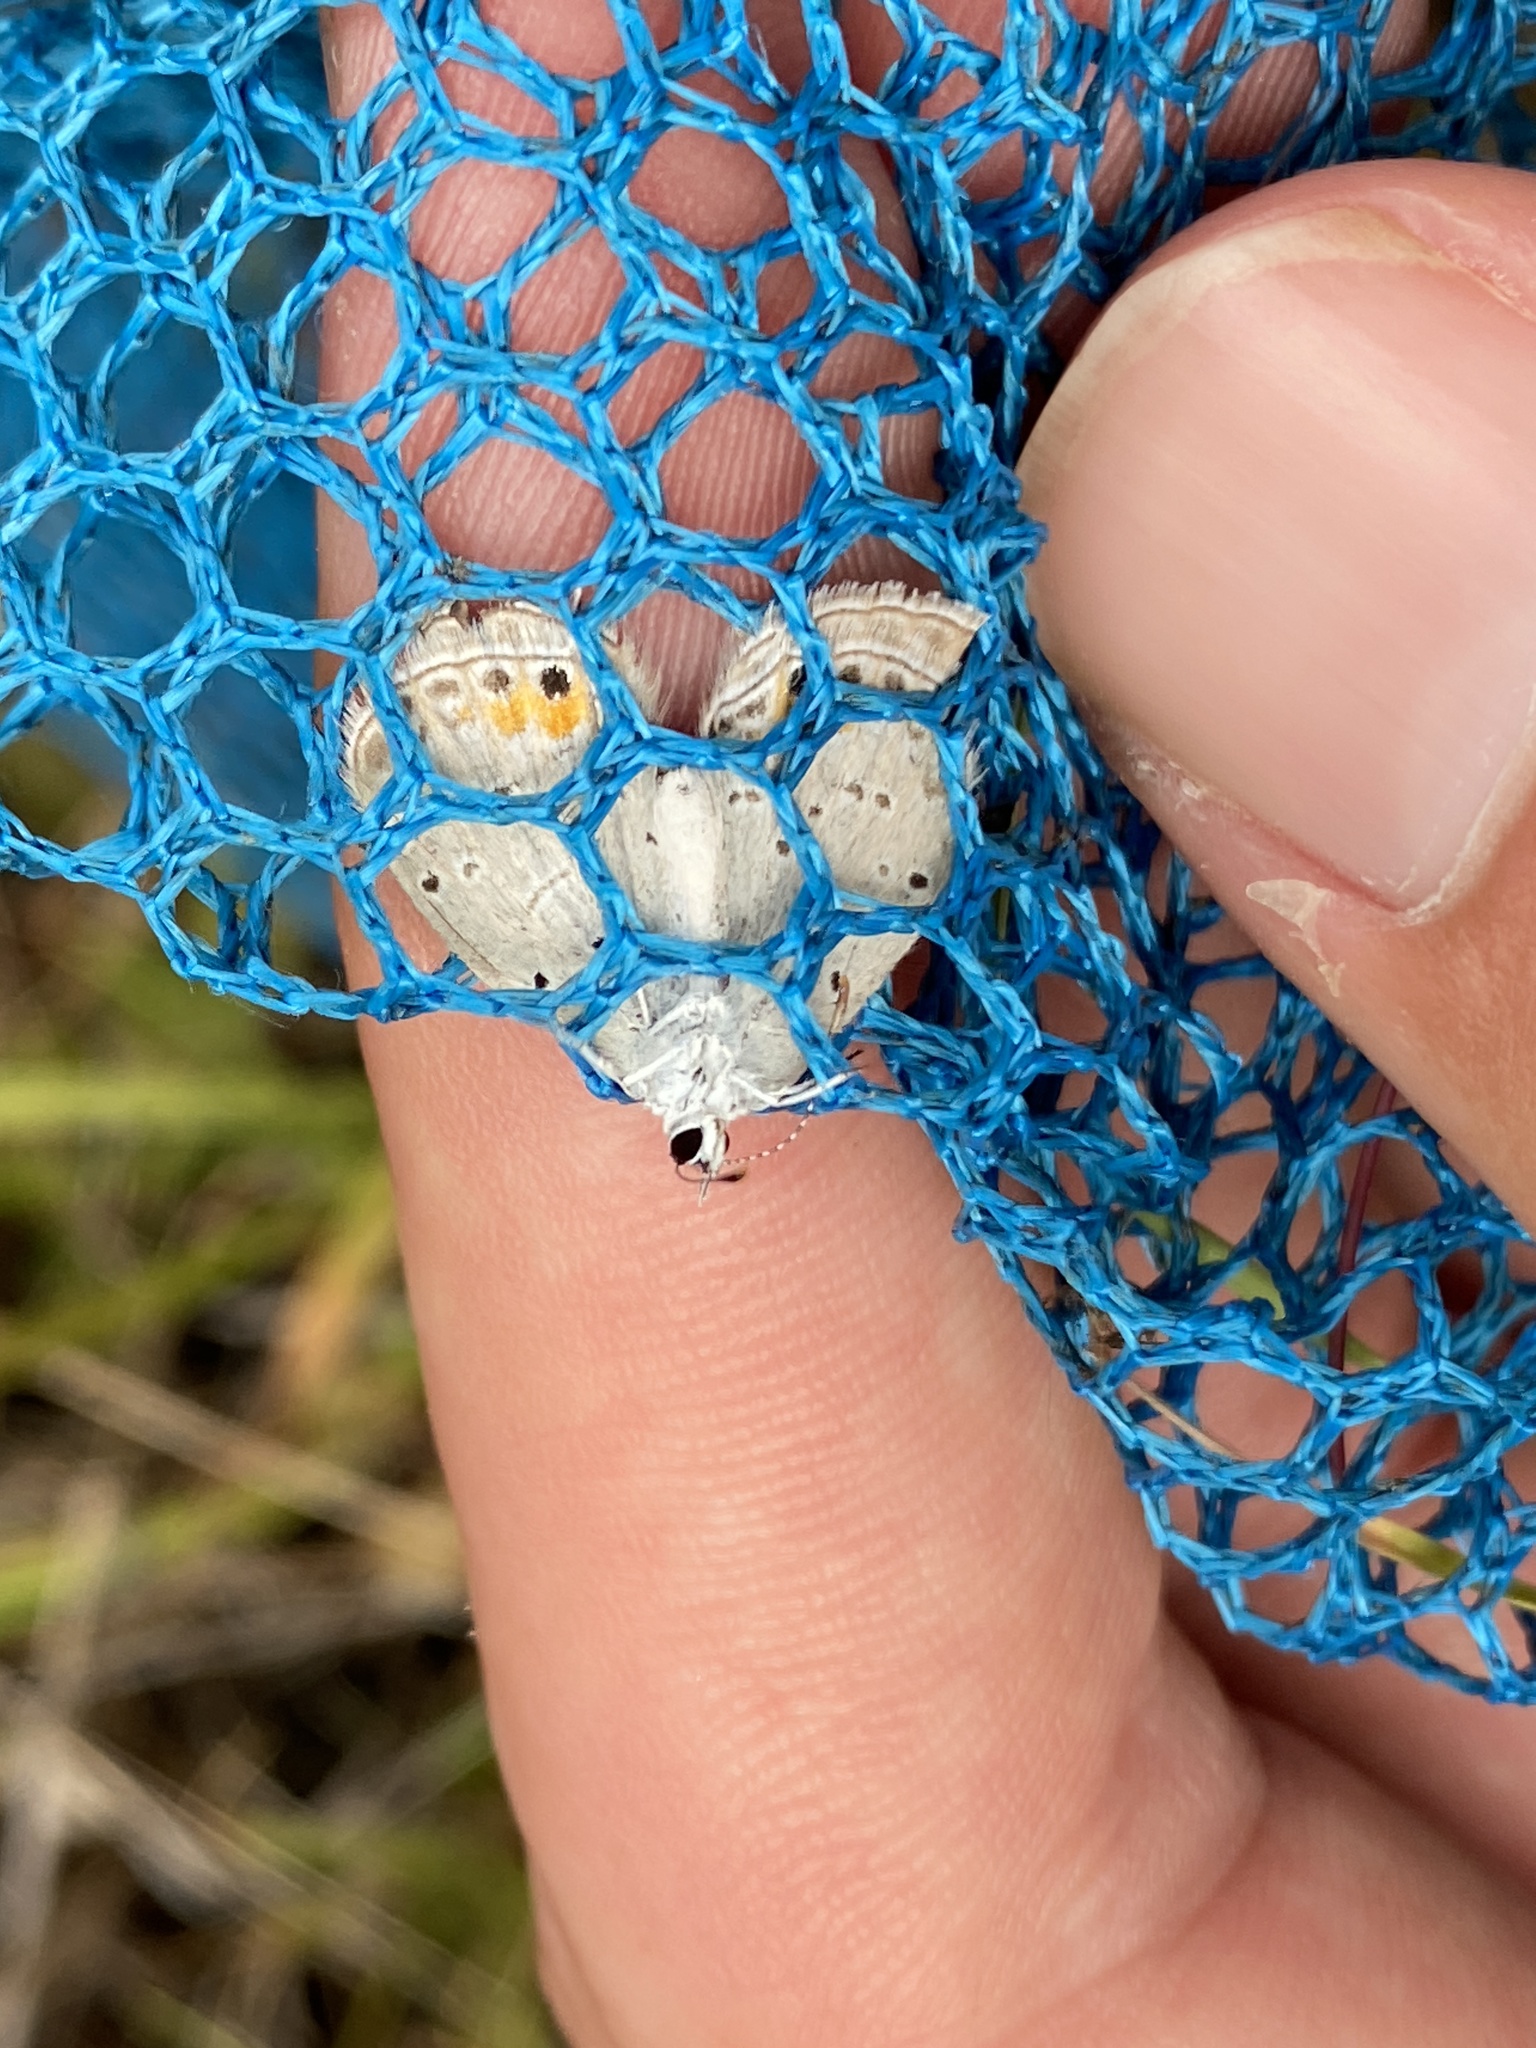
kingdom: Animalia
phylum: Arthropoda
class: Insecta
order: Lepidoptera
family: Lycaenidae
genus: Elkalyce
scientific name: Elkalyce comyntas
